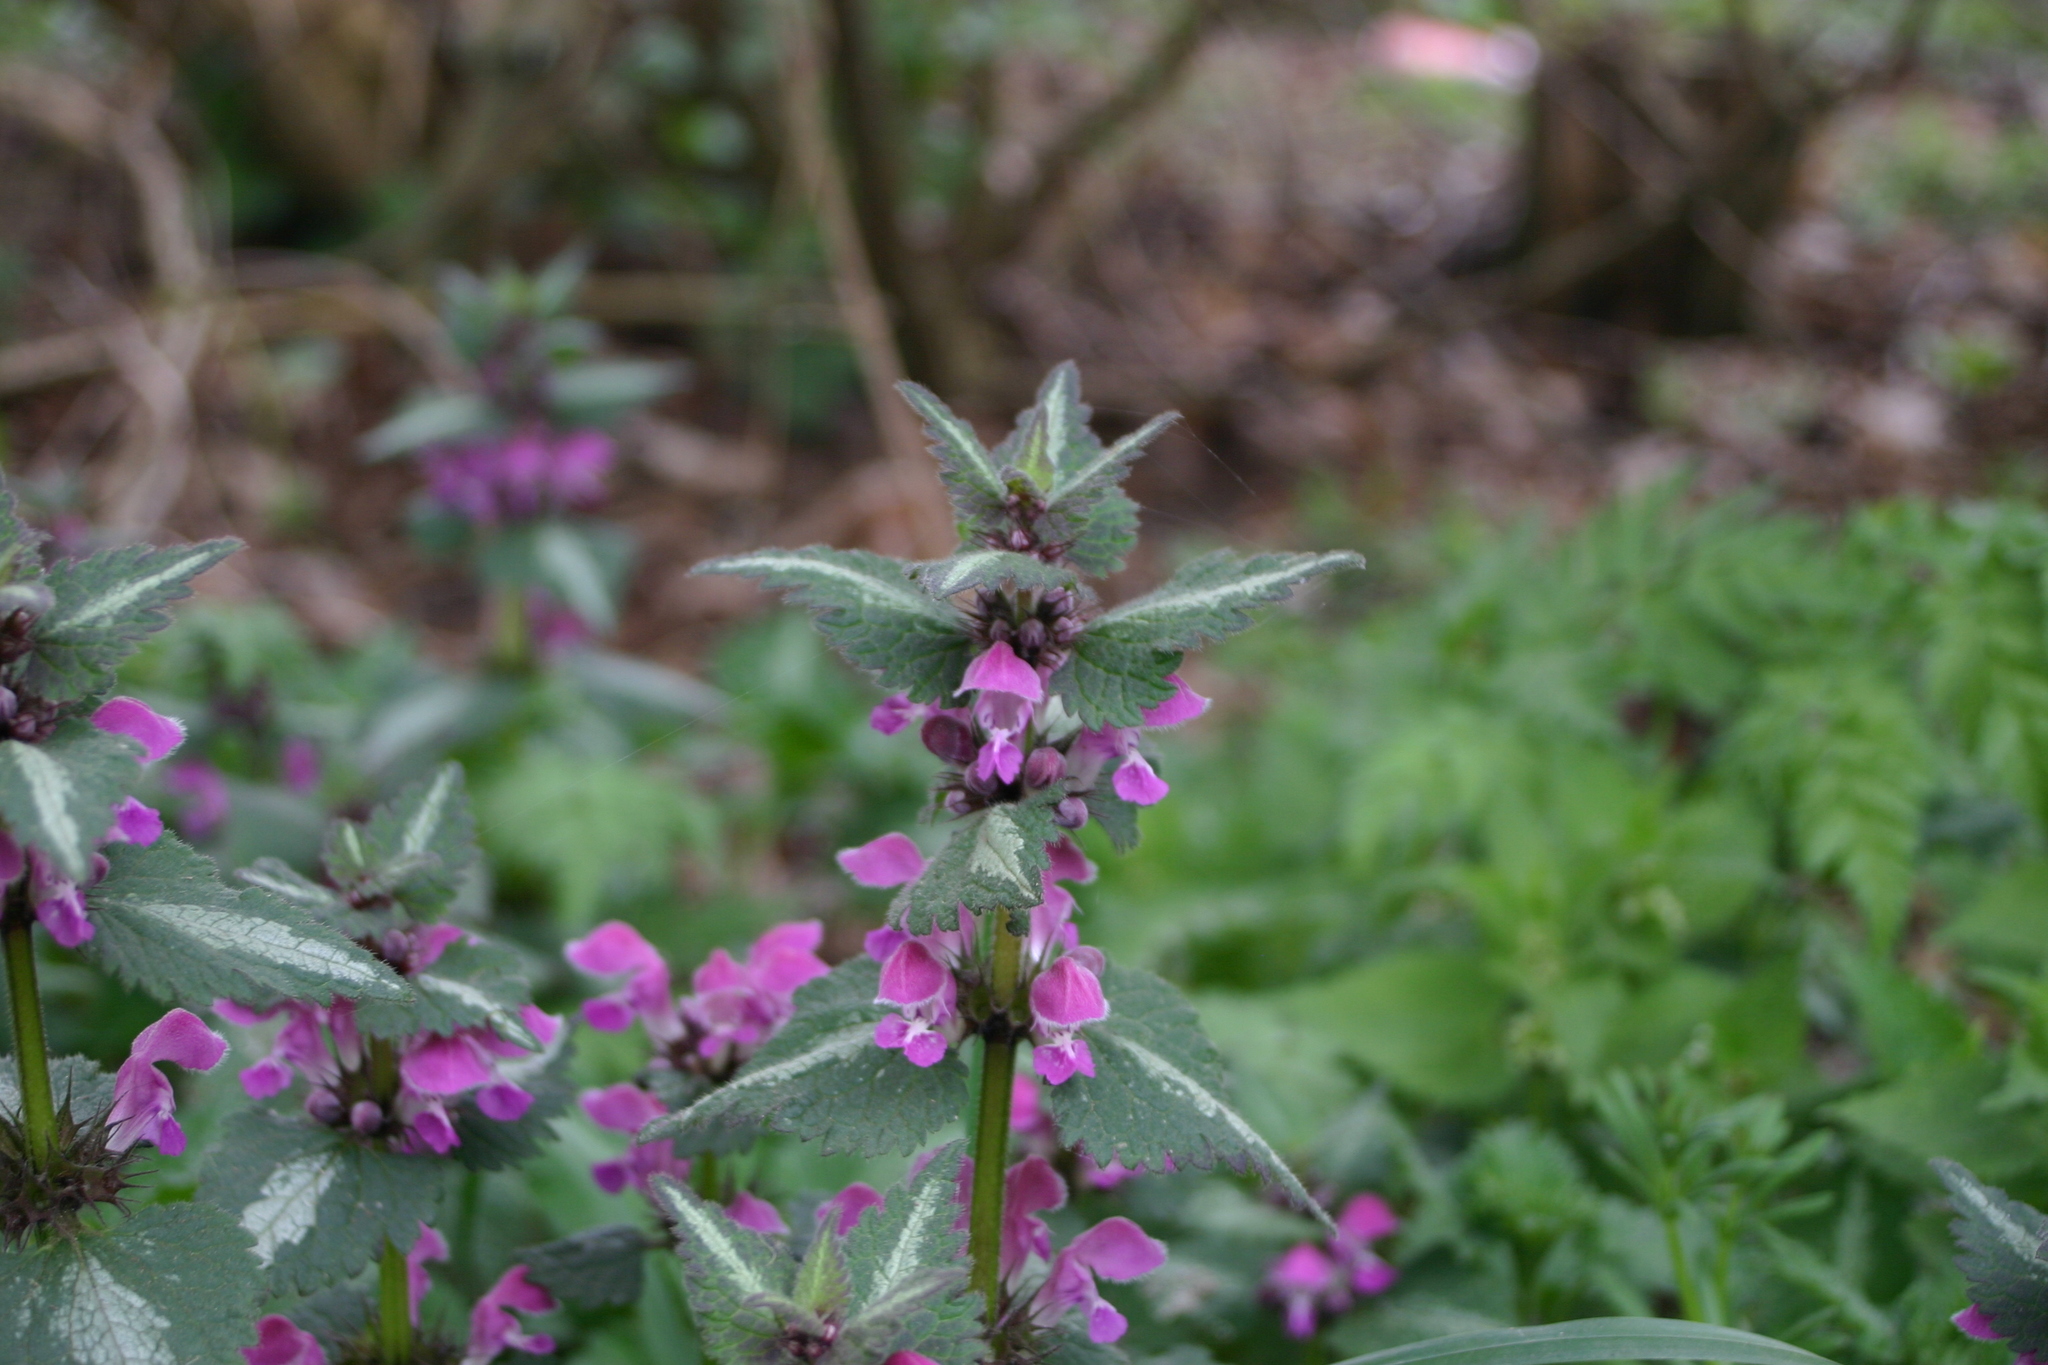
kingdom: Plantae
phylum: Tracheophyta
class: Magnoliopsida
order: Lamiales
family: Lamiaceae
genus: Lamium
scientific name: Lamium maculatum
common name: Spotted dead-nettle
